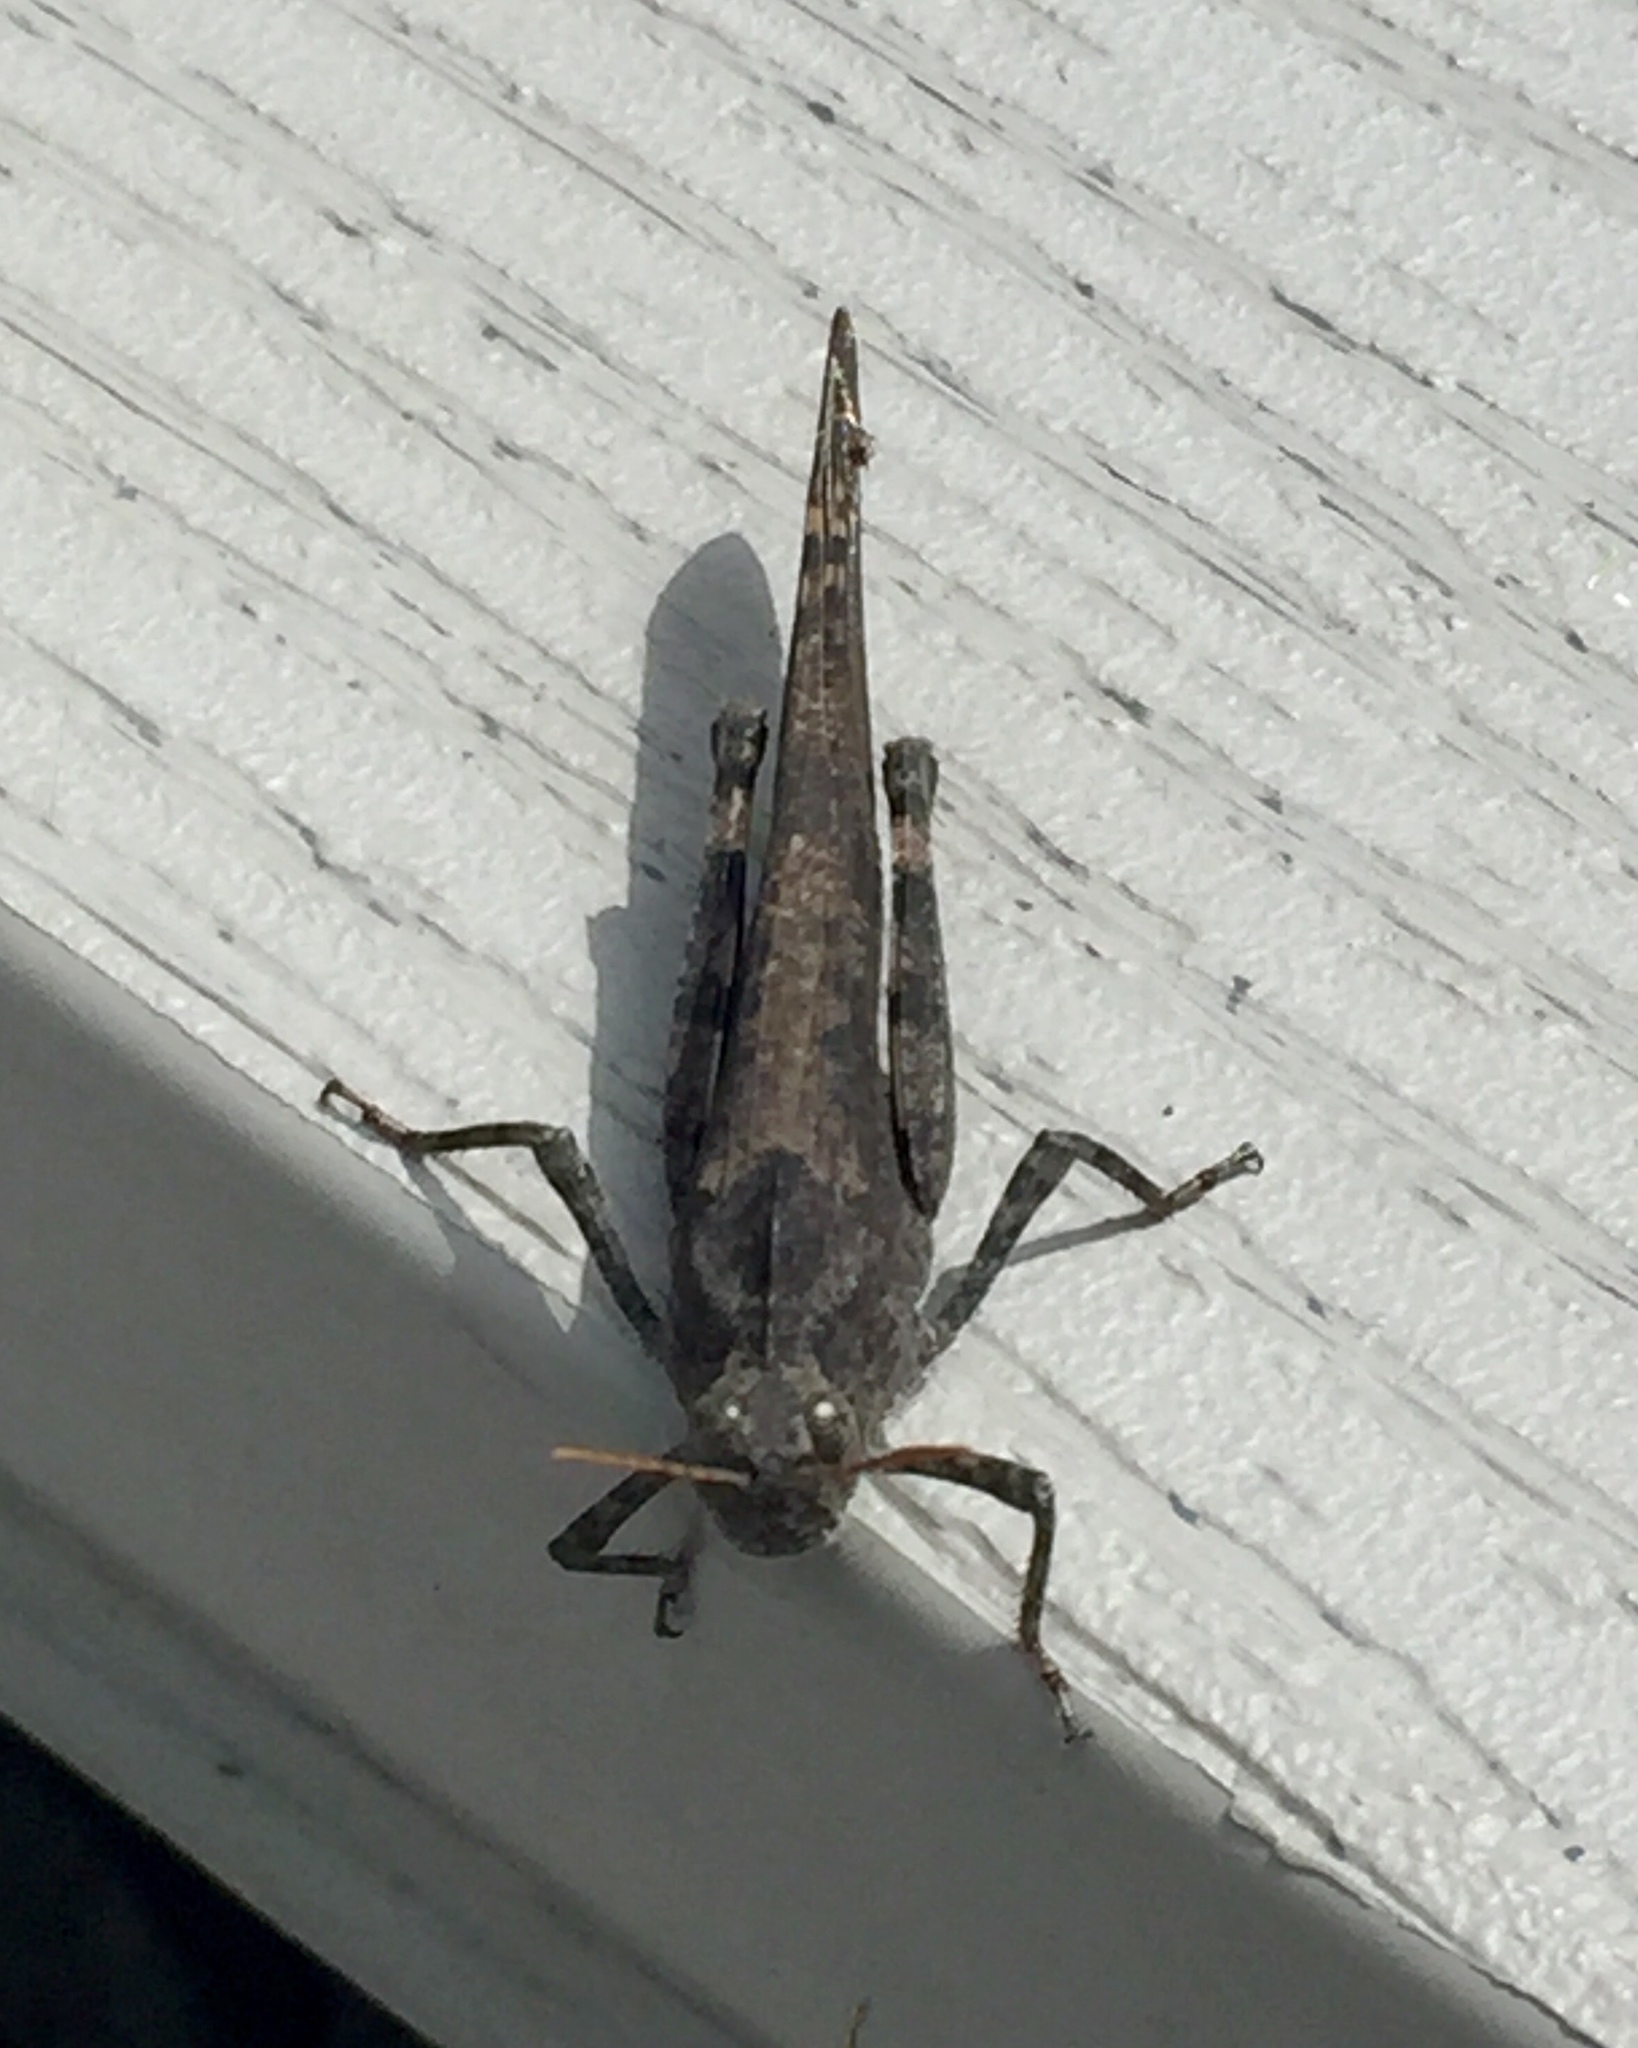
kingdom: Animalia
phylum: Arthropoda
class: Insecta
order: Orthoptera
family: Acrididae
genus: Dissosteira
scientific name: Dissosteira carolina
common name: Carolina grasshopper
